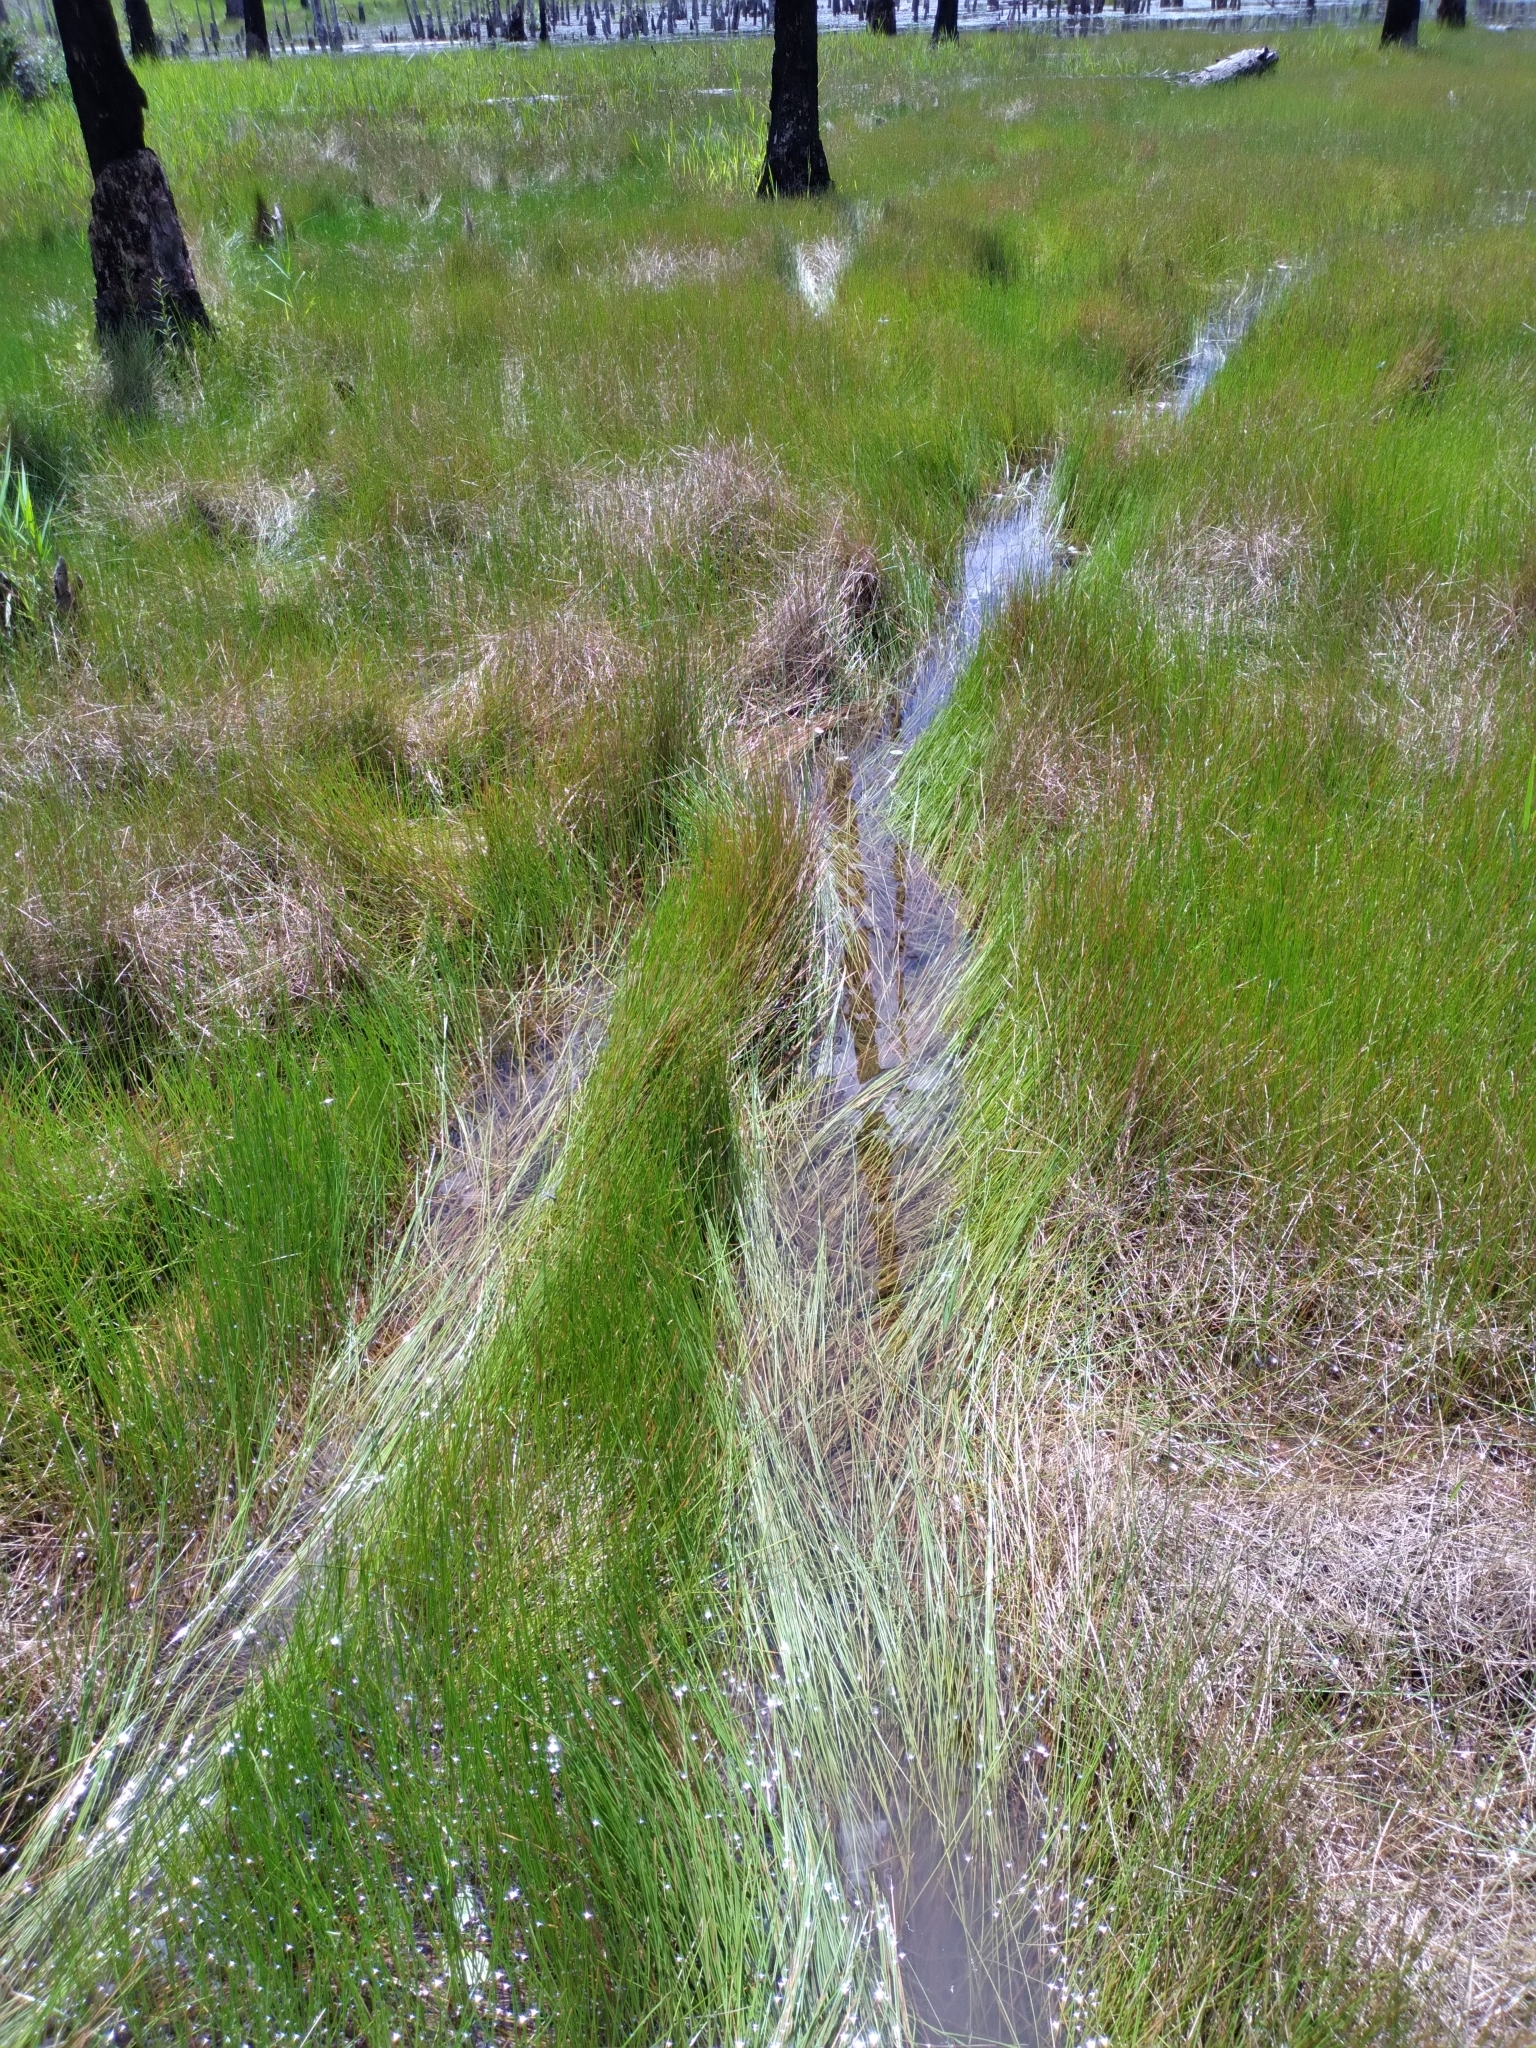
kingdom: Plantae
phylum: Tracheophyta
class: Liliopsida
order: Poales
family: Cyperaceae
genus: Eleocharis
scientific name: Eleocharis robbinsii
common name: Robbins' spikerush
